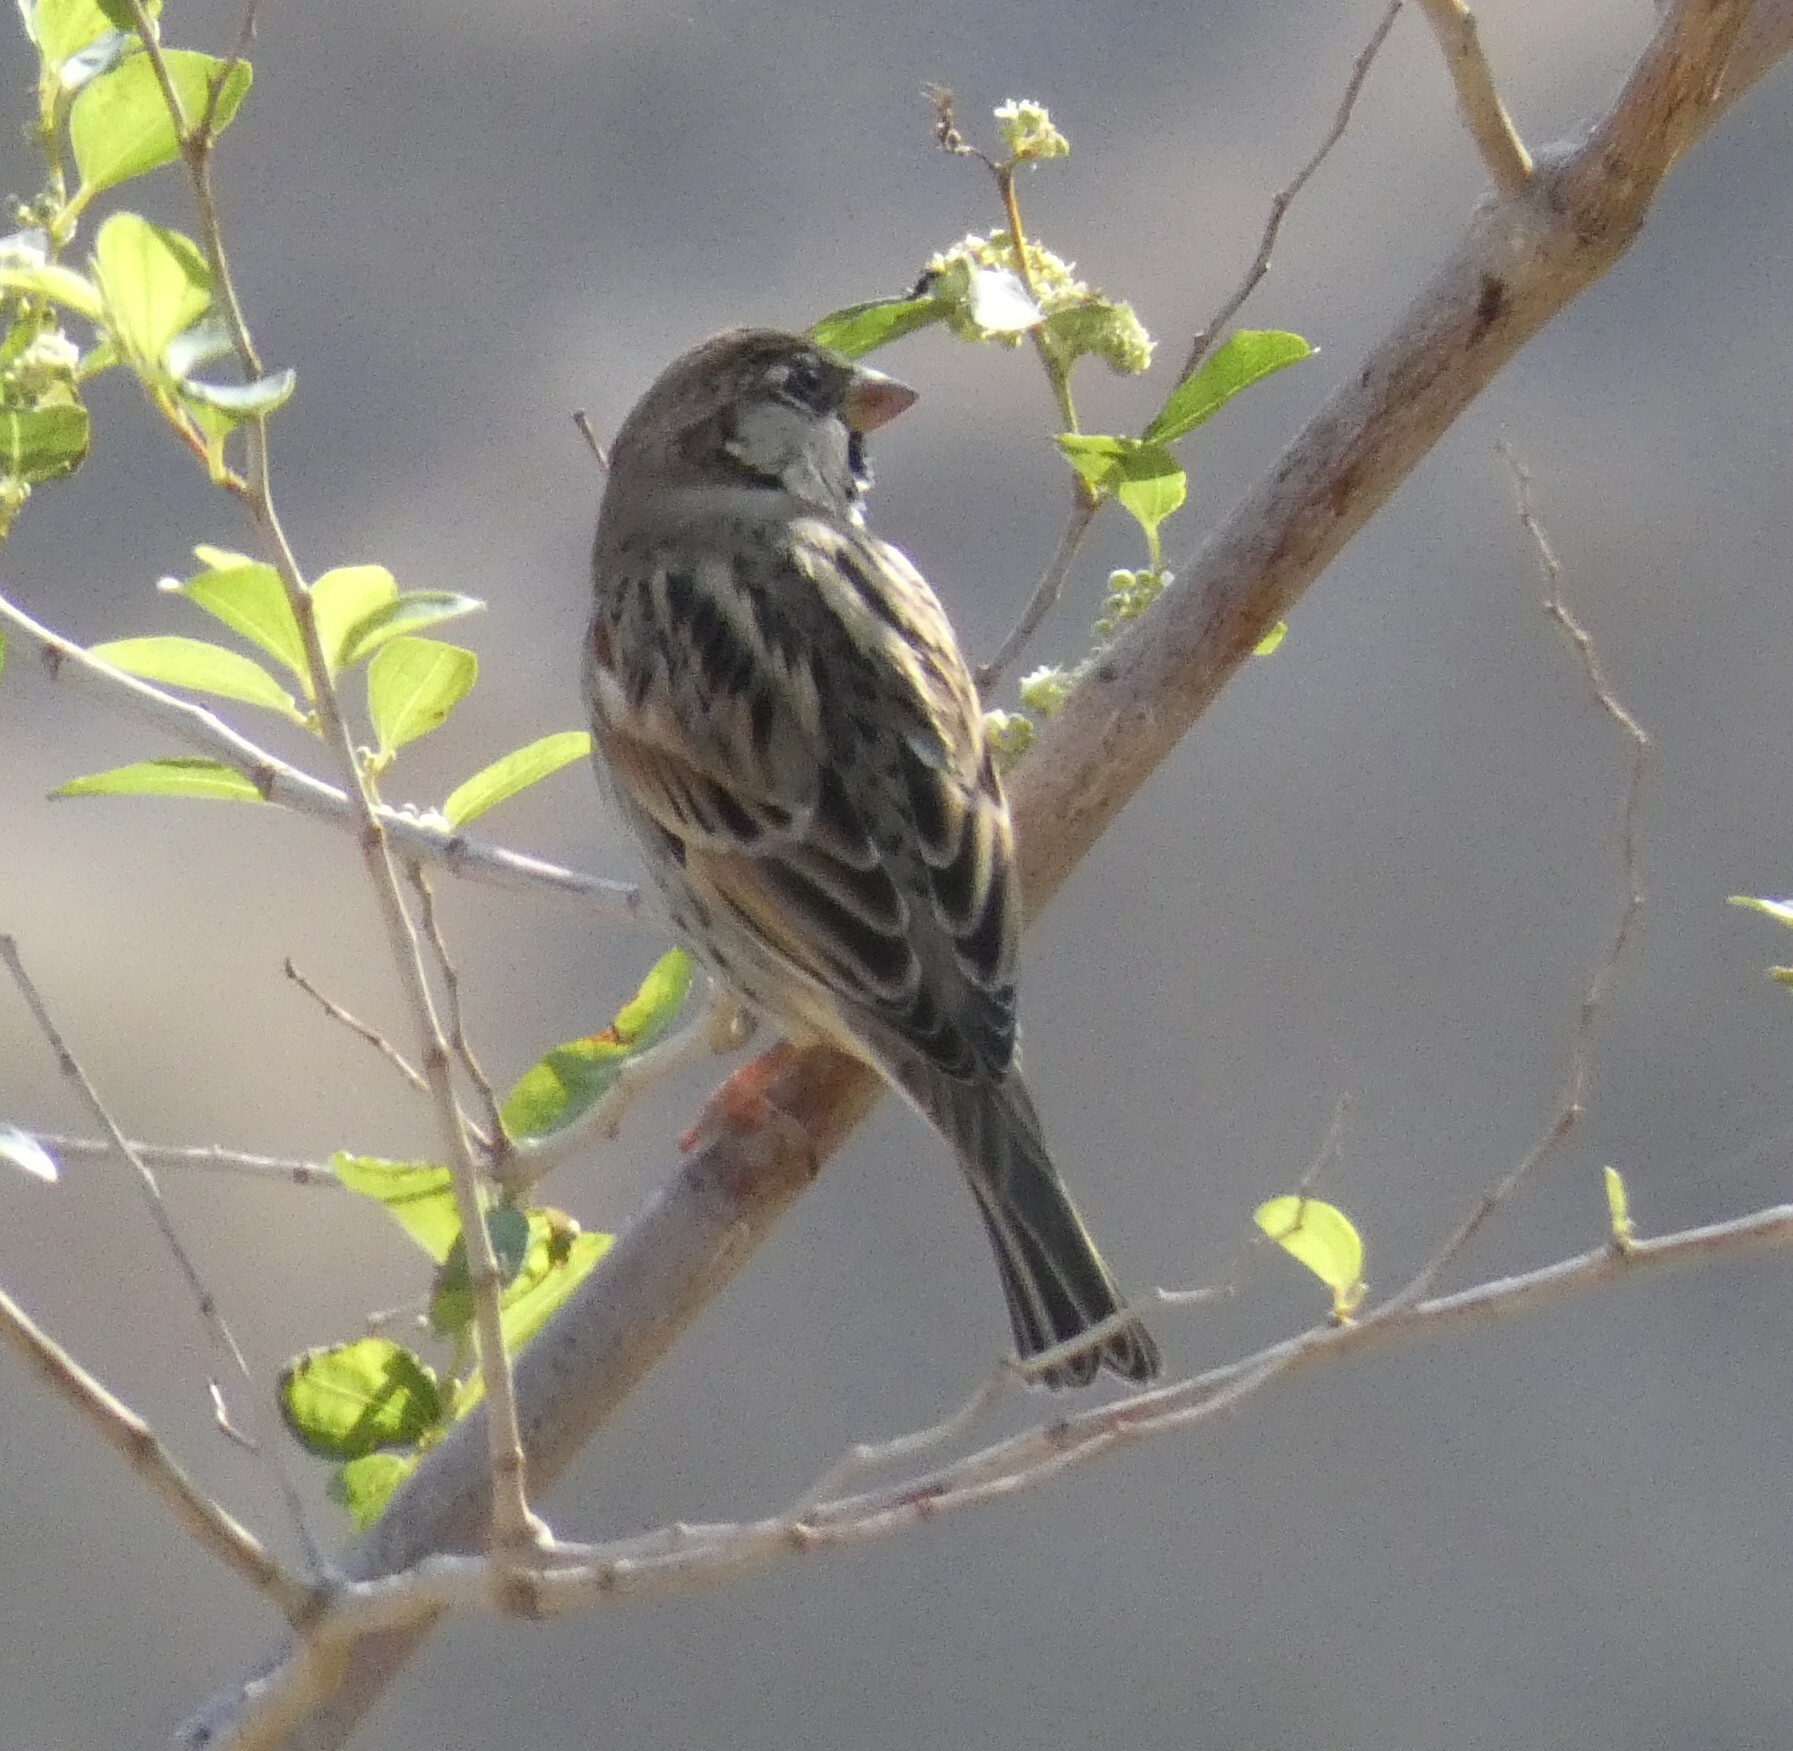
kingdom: Animalia
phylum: Chordata
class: Aves
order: Passeriformes
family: Passeridae
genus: Passer
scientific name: Passer hispaniolensis
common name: Spanish sparrow
